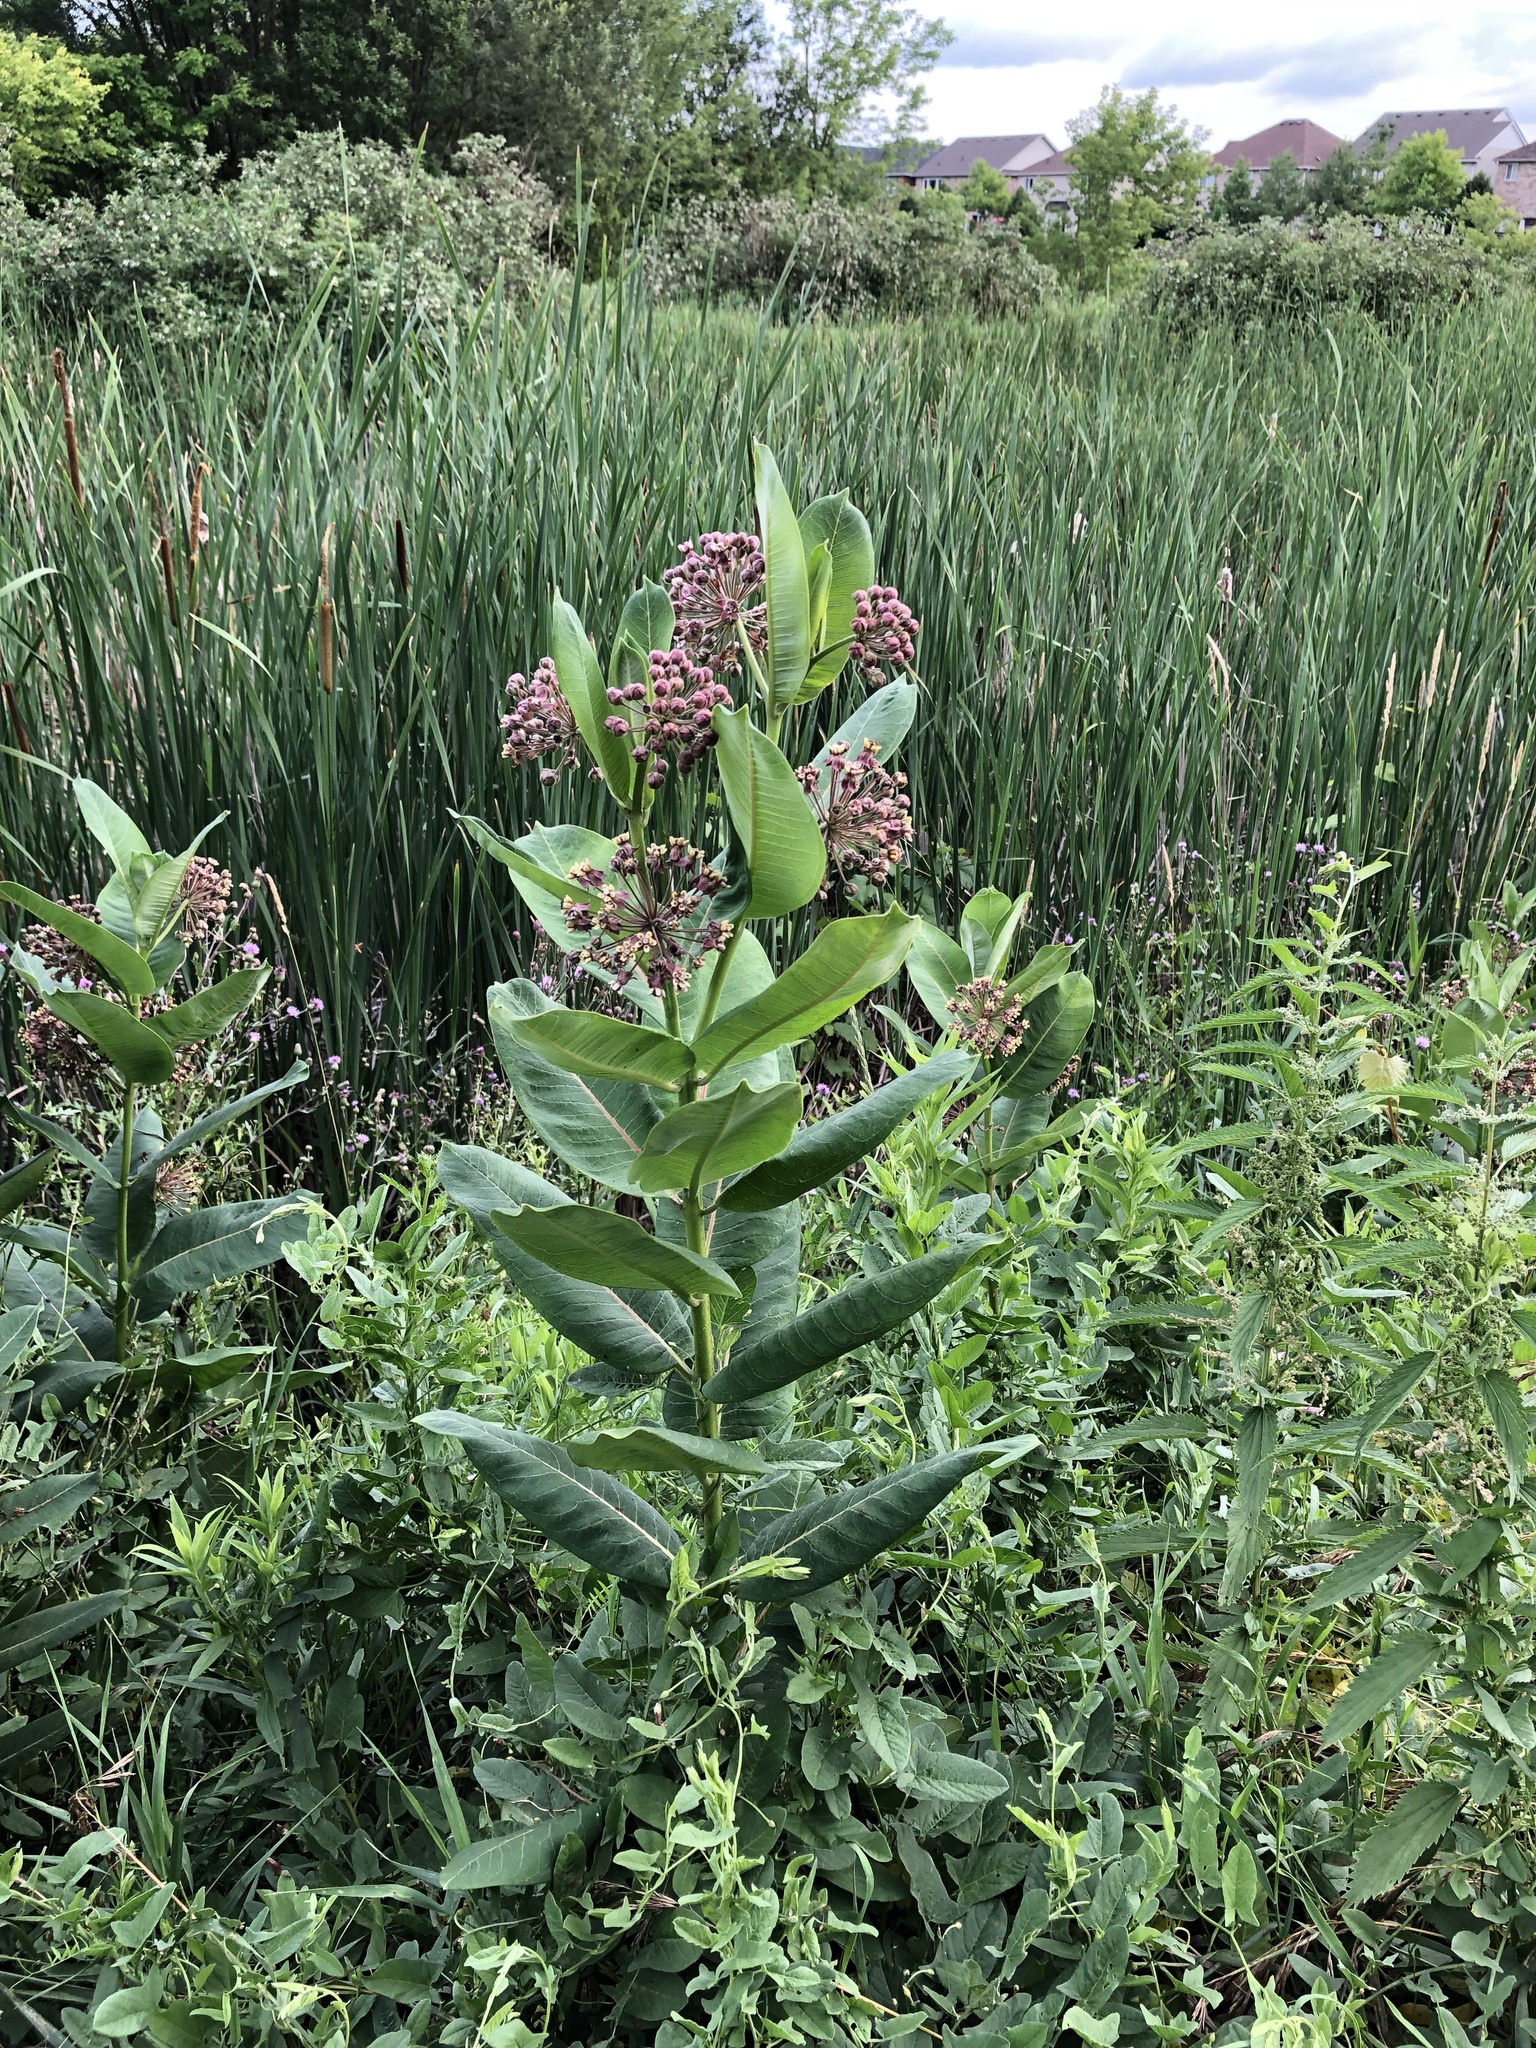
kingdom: Plantae
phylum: Tracheophyta
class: Magnoliopsida
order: Gentianales
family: Apocynaceae
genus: Asclepias
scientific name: Asclepias syriaca
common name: Common milkweed
